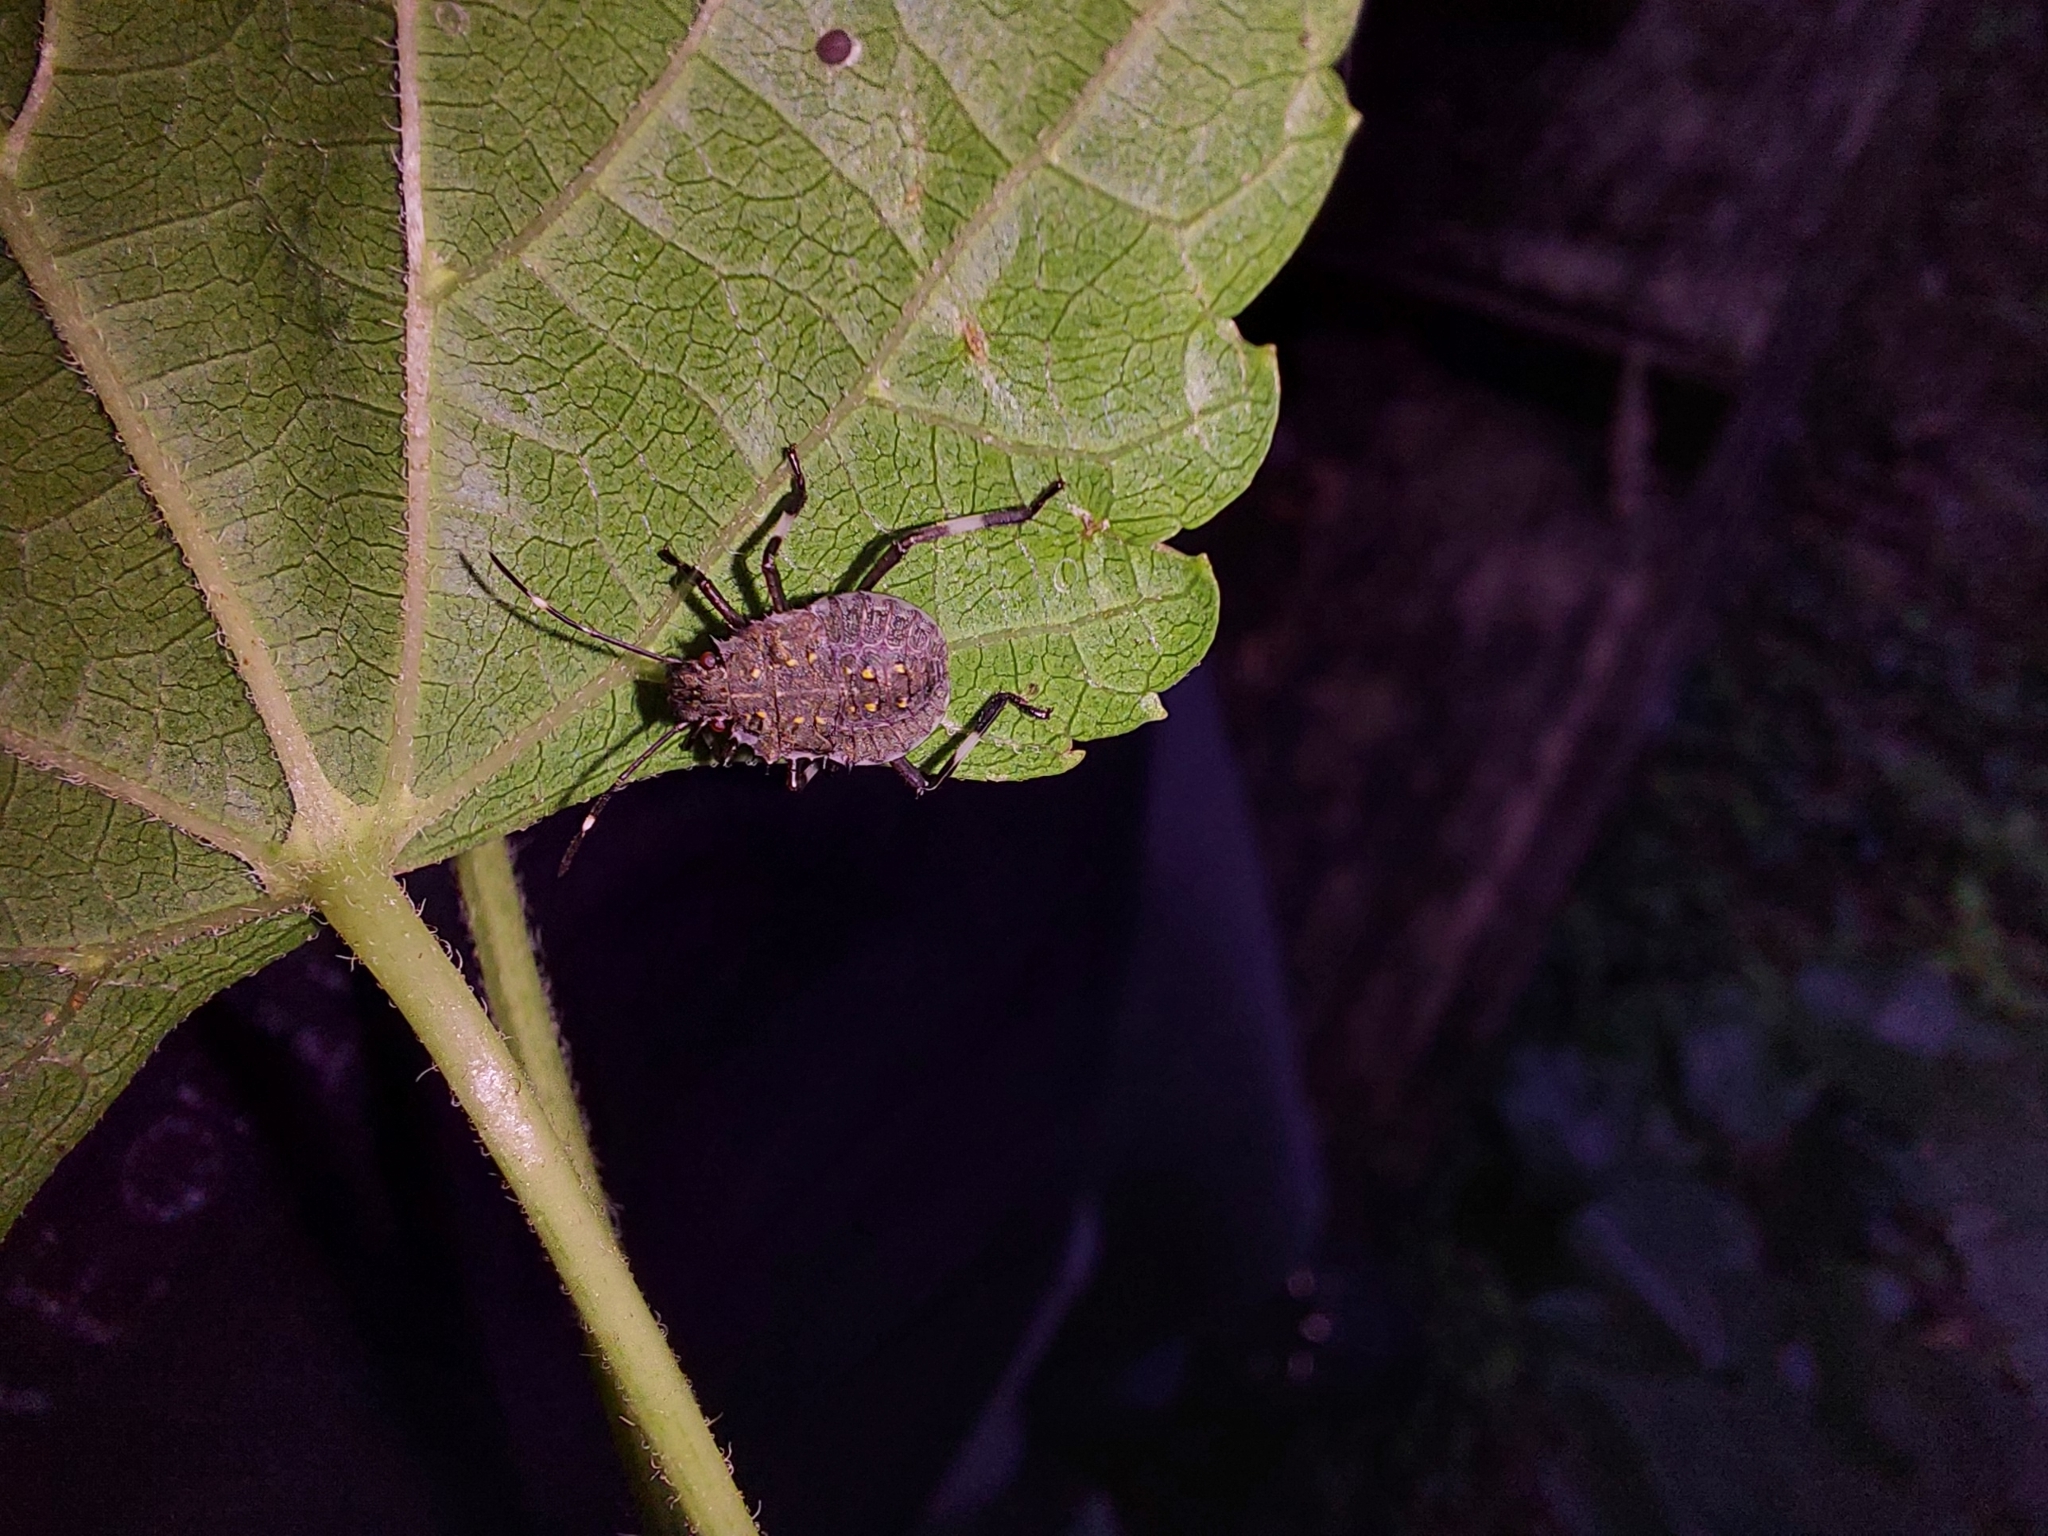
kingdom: Animalia
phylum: Arthropoda
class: Insecta
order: Hemiptera
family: Pentatomidae
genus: Halyomorpha
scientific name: Halyomorpha halys
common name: Brown marmorated stink bug
